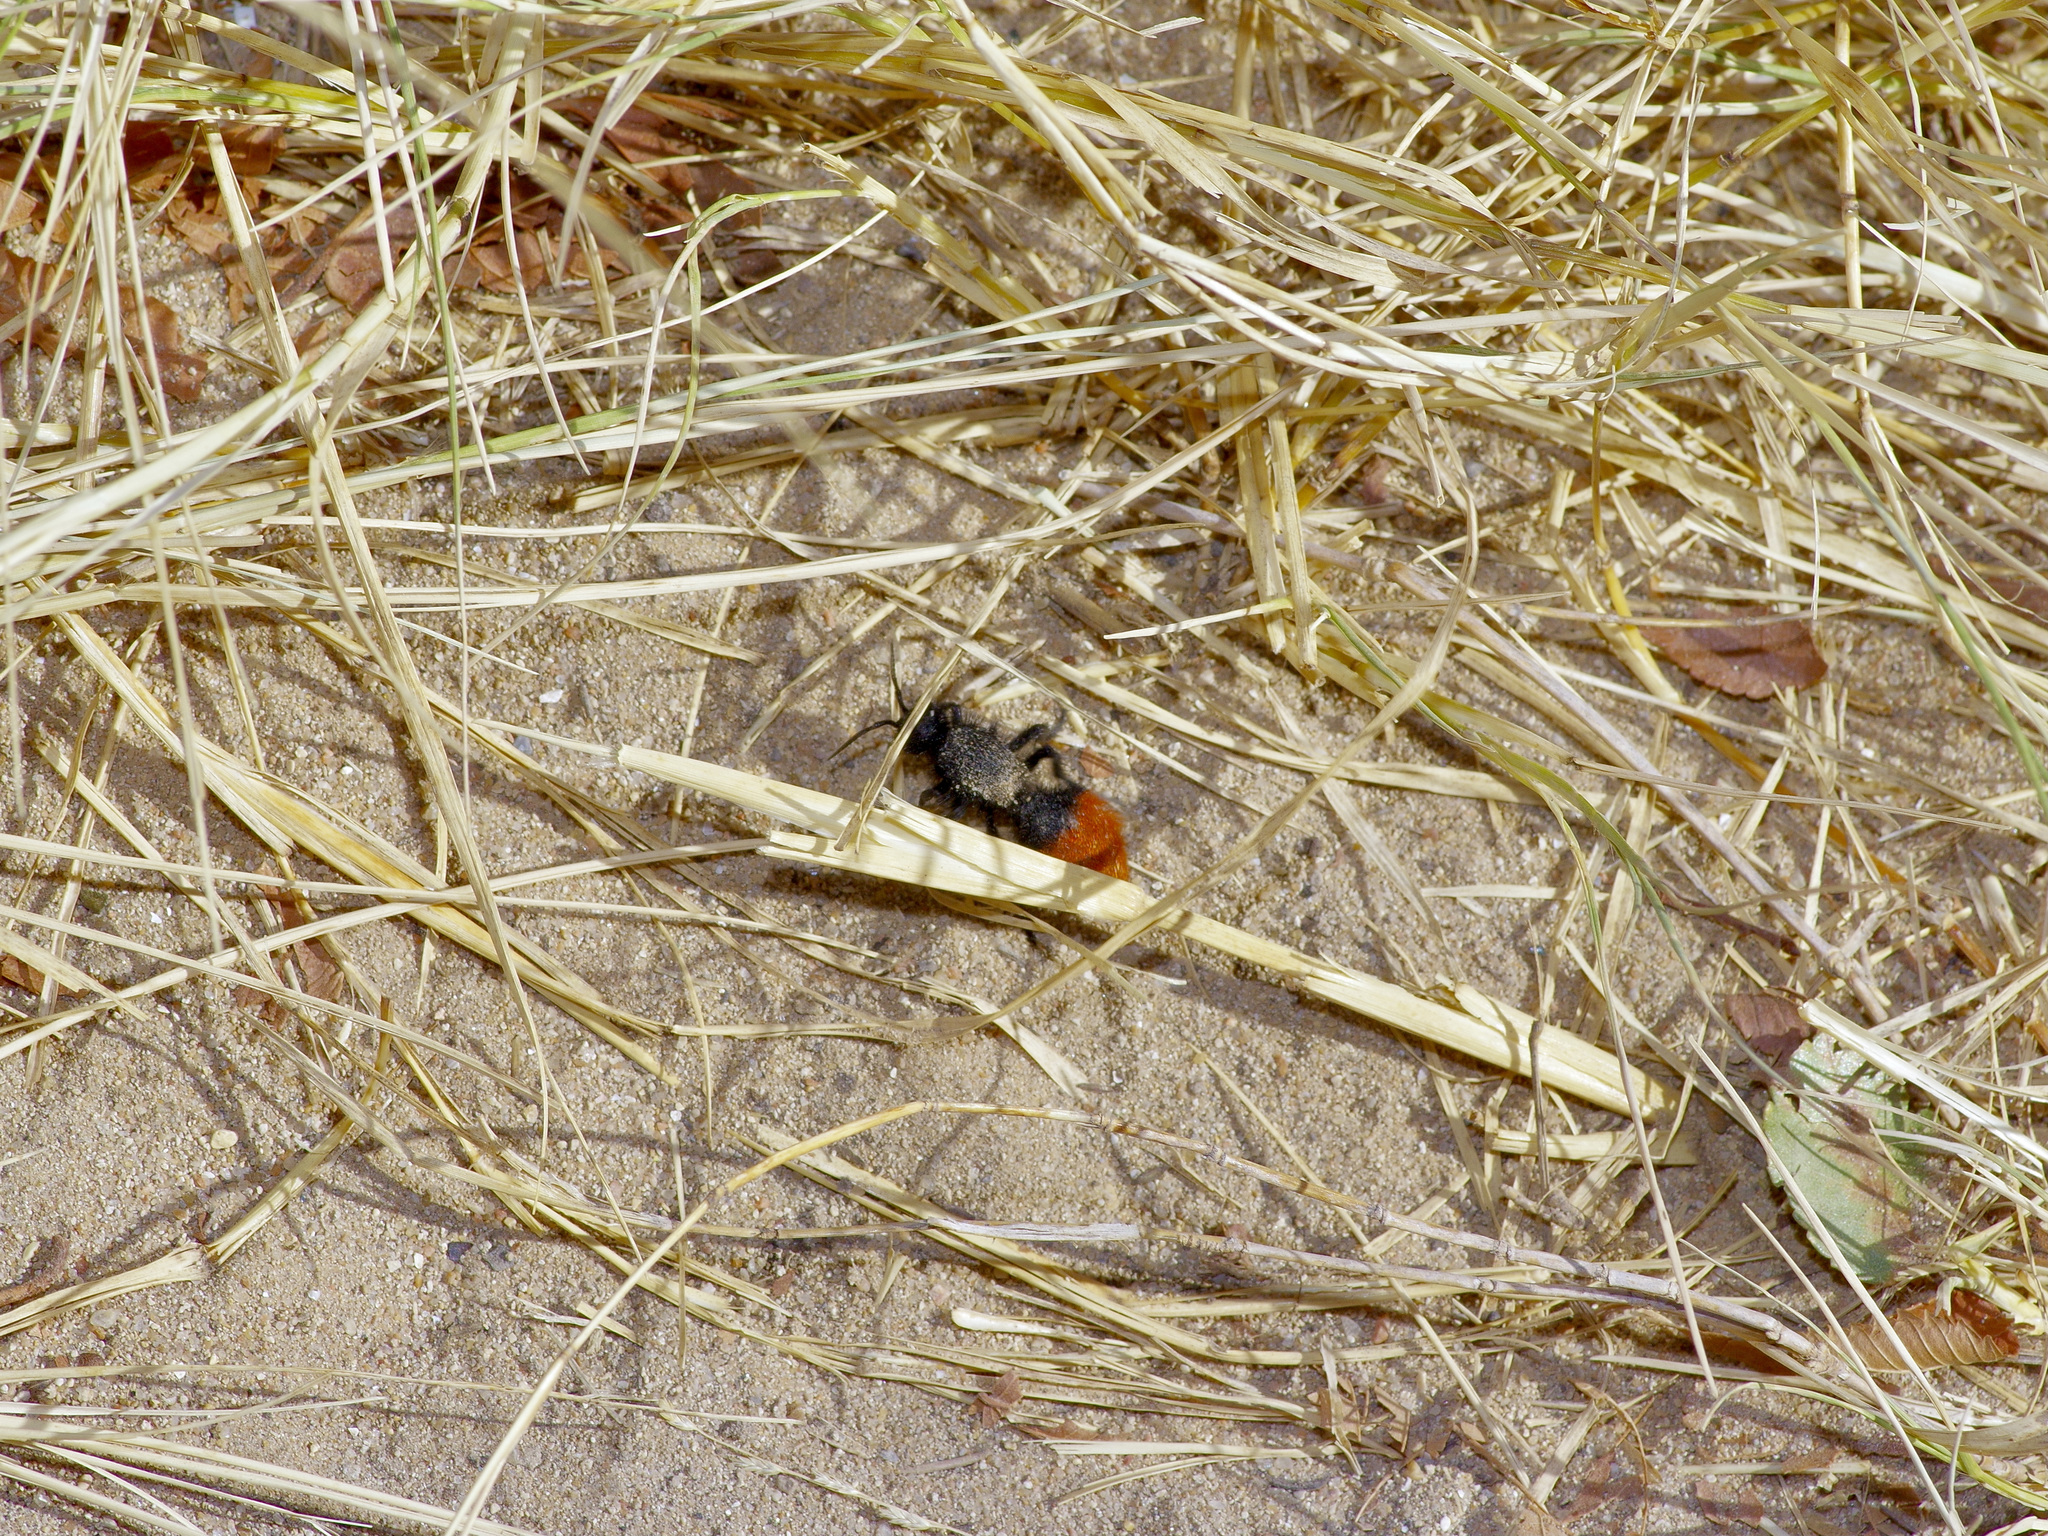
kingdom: Animalia
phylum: Arthropoda
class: Insecta
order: Hymenoptera
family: Mutillidae
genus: Dasymutilla
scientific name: Dasymutilla
